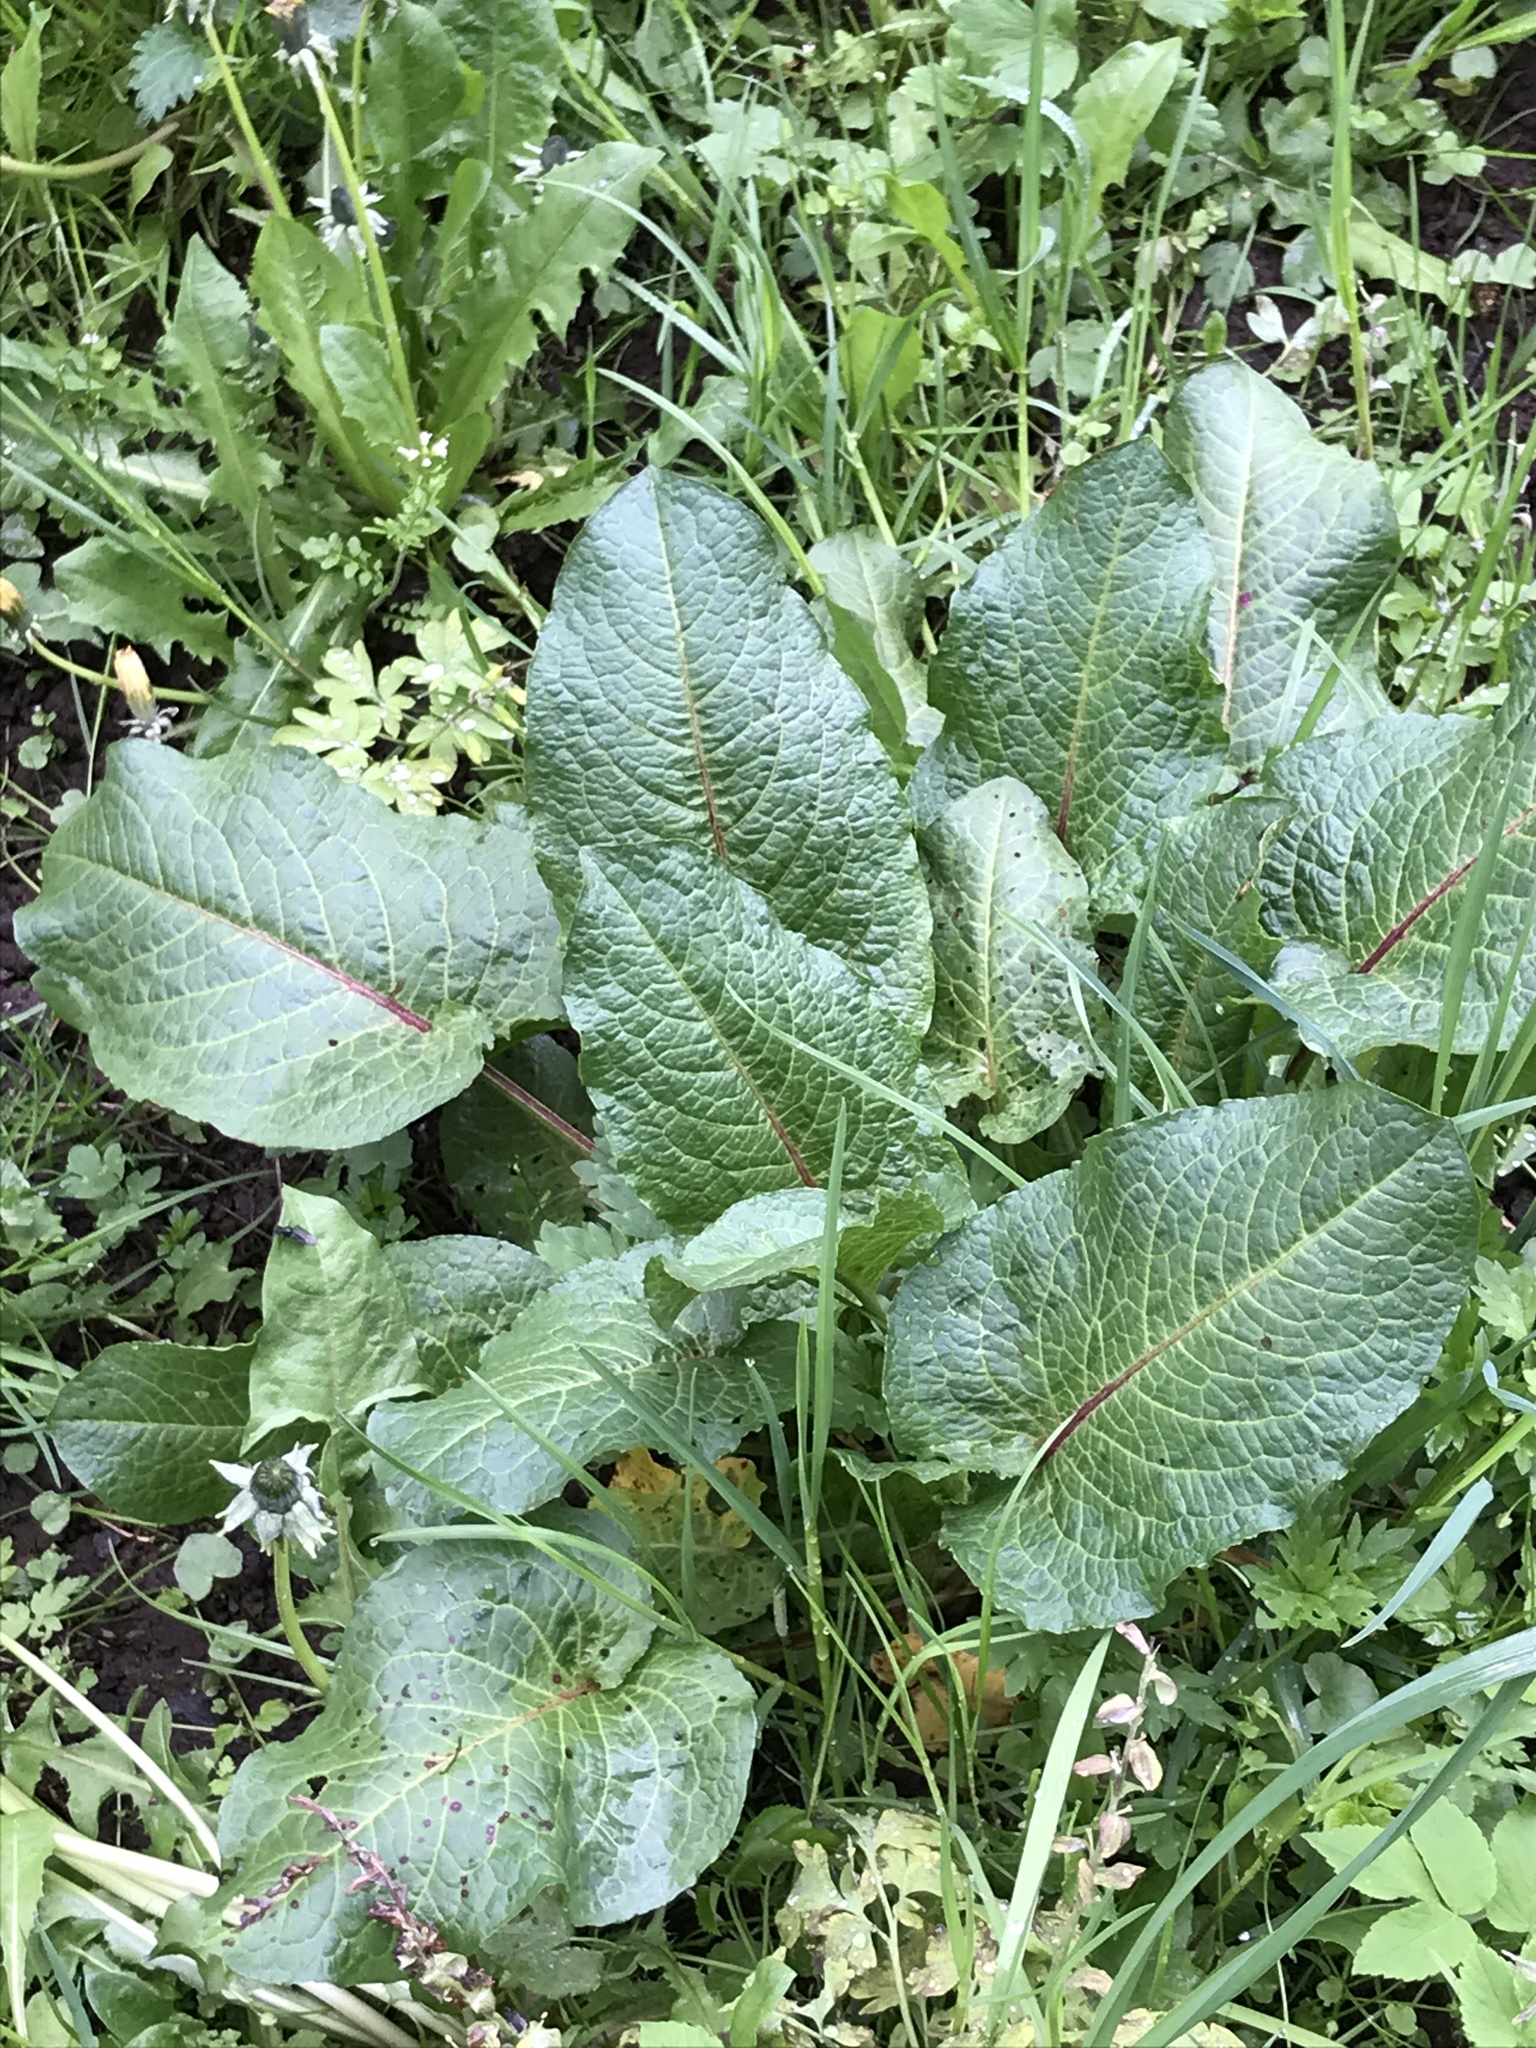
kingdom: Plantae
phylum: Tracheophyta
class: Magnoliopsida
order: Caryophyllales
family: Polygonaceae
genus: Rumex
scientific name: Rumex obtusifolius
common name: Bitter dock
